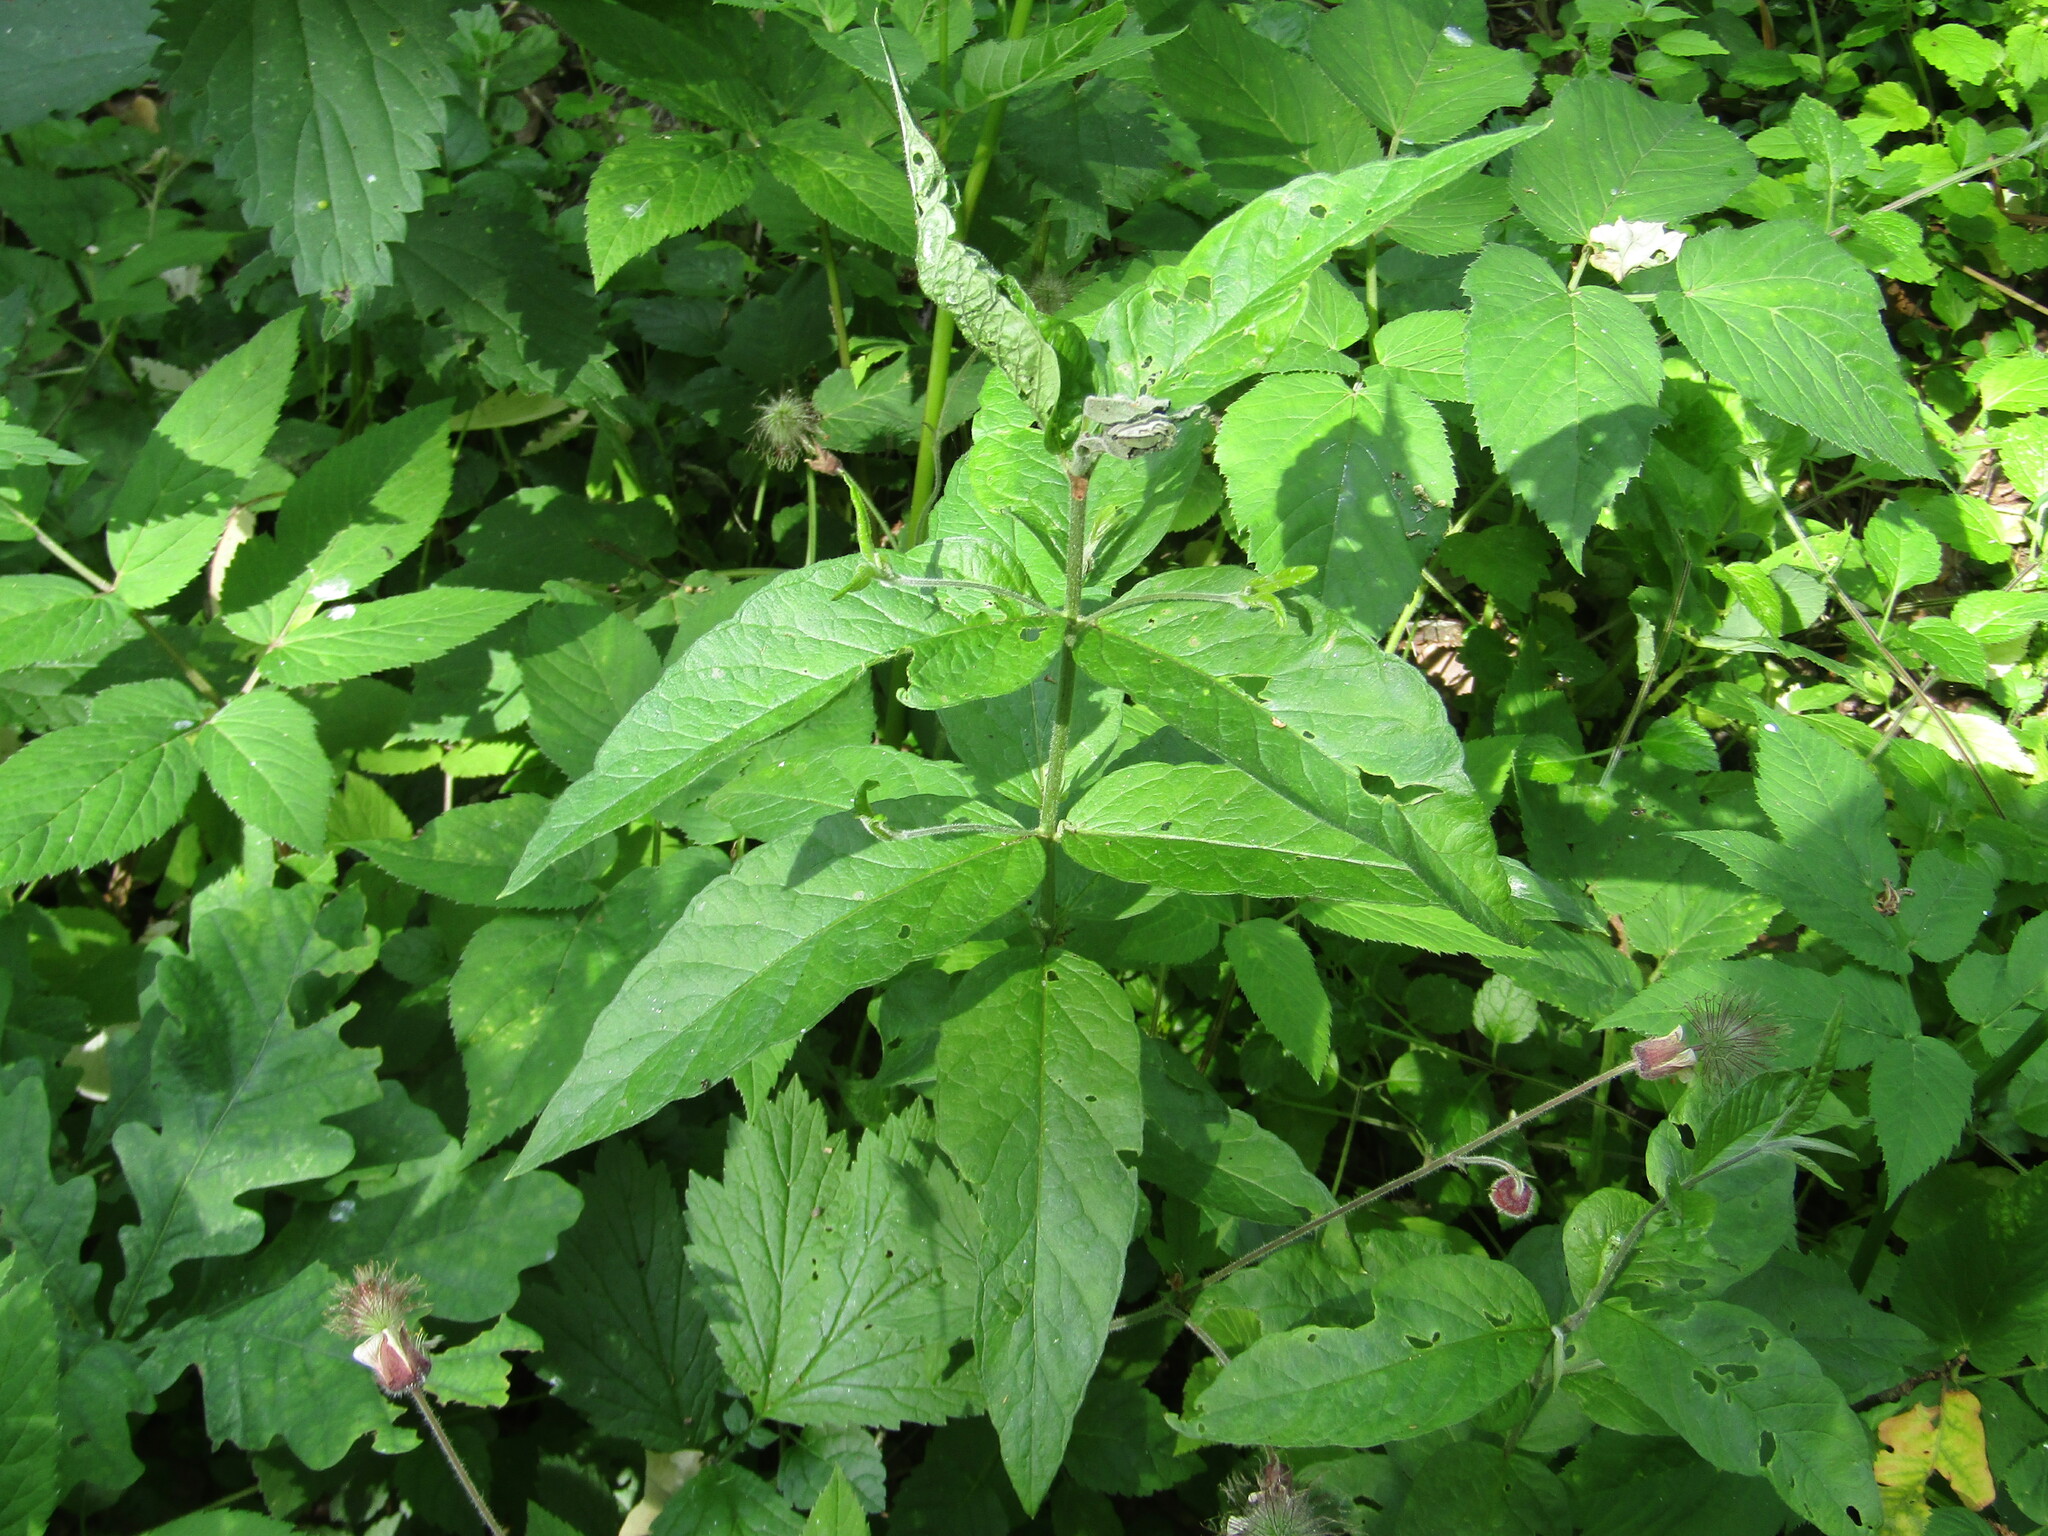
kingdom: Plantae
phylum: Tracheophyta
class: Magnoliopsida
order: Ericales
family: Primulaceae
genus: Lysimachia
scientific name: Lysimachia vulgaris
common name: Yellow loosestrife
